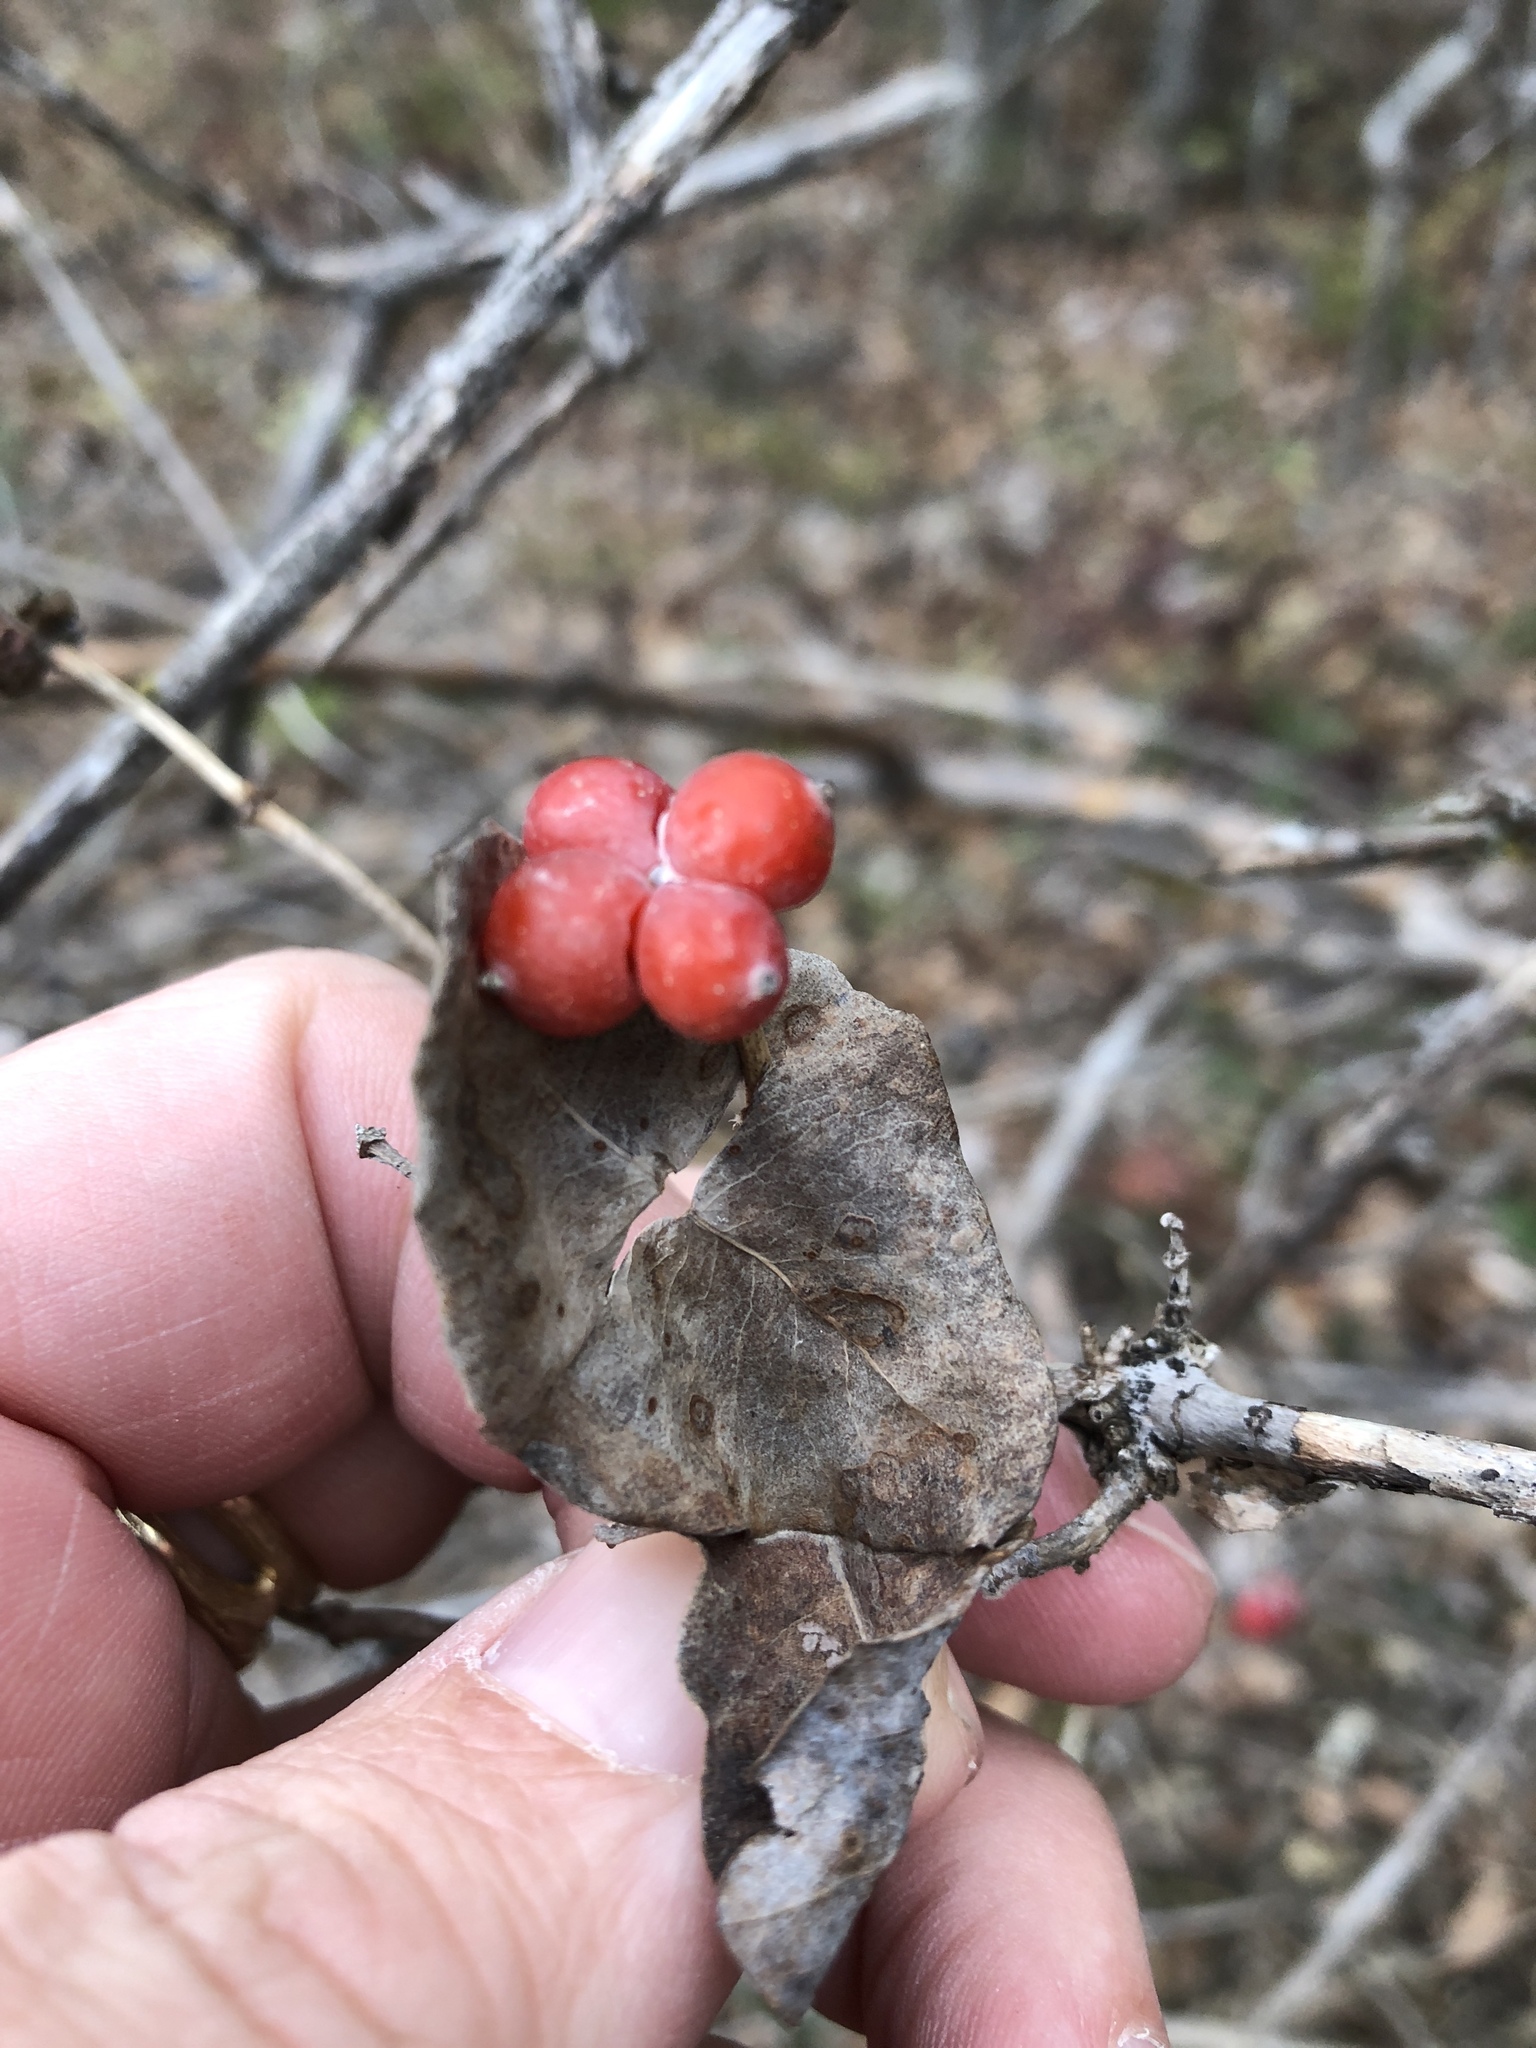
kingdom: Plantae
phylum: Tracheophyta
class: Magnoliopsida
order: Dipsacales
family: Caprifoliaceae
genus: Lonicera
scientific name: Lonicera albiflora
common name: White honeysuckle
